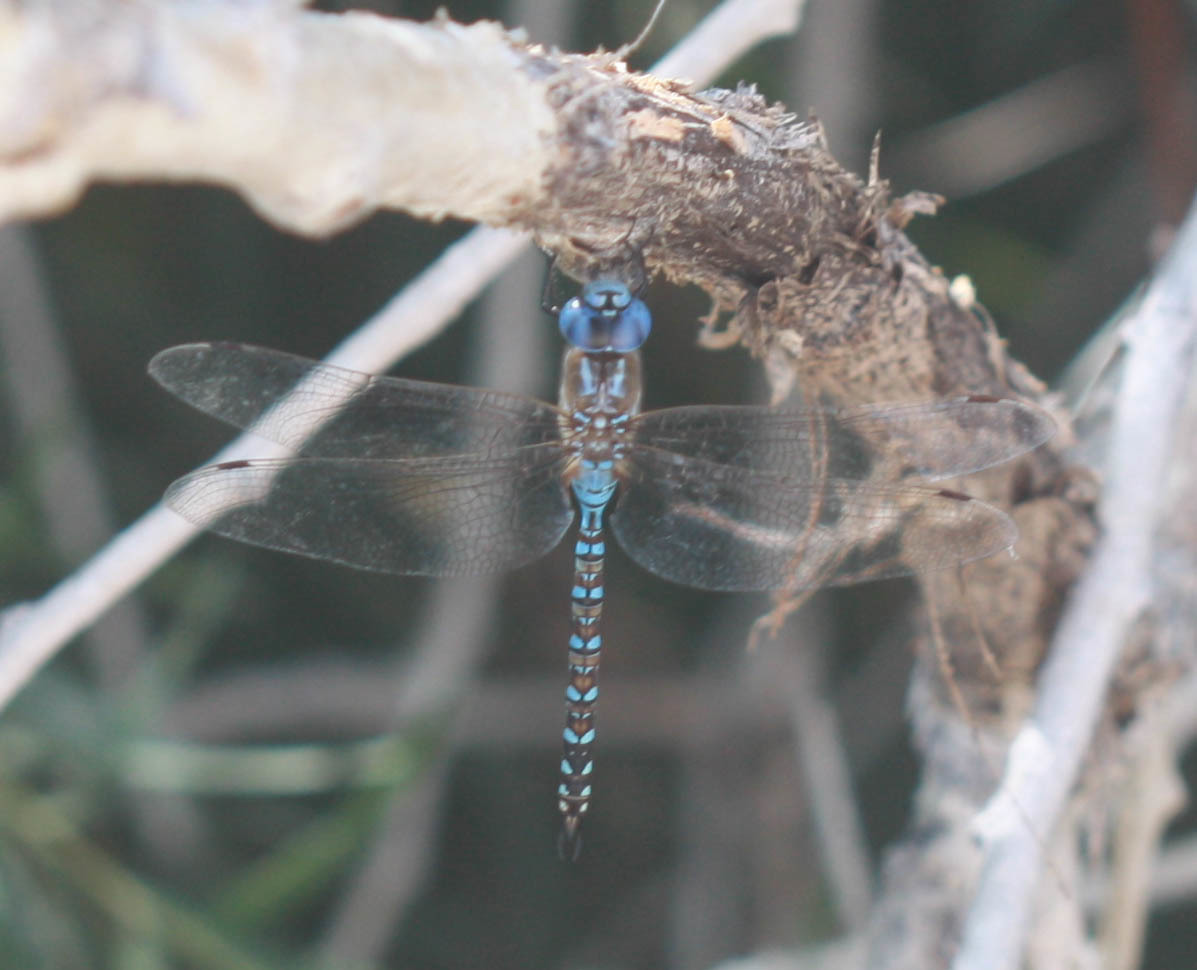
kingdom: Animalia
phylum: Arthropoda
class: Insecta
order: Odonata
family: Aeshnidae
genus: Rhionaeschna
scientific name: Rhionaeschna multicolor
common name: Blue-eyed darner
